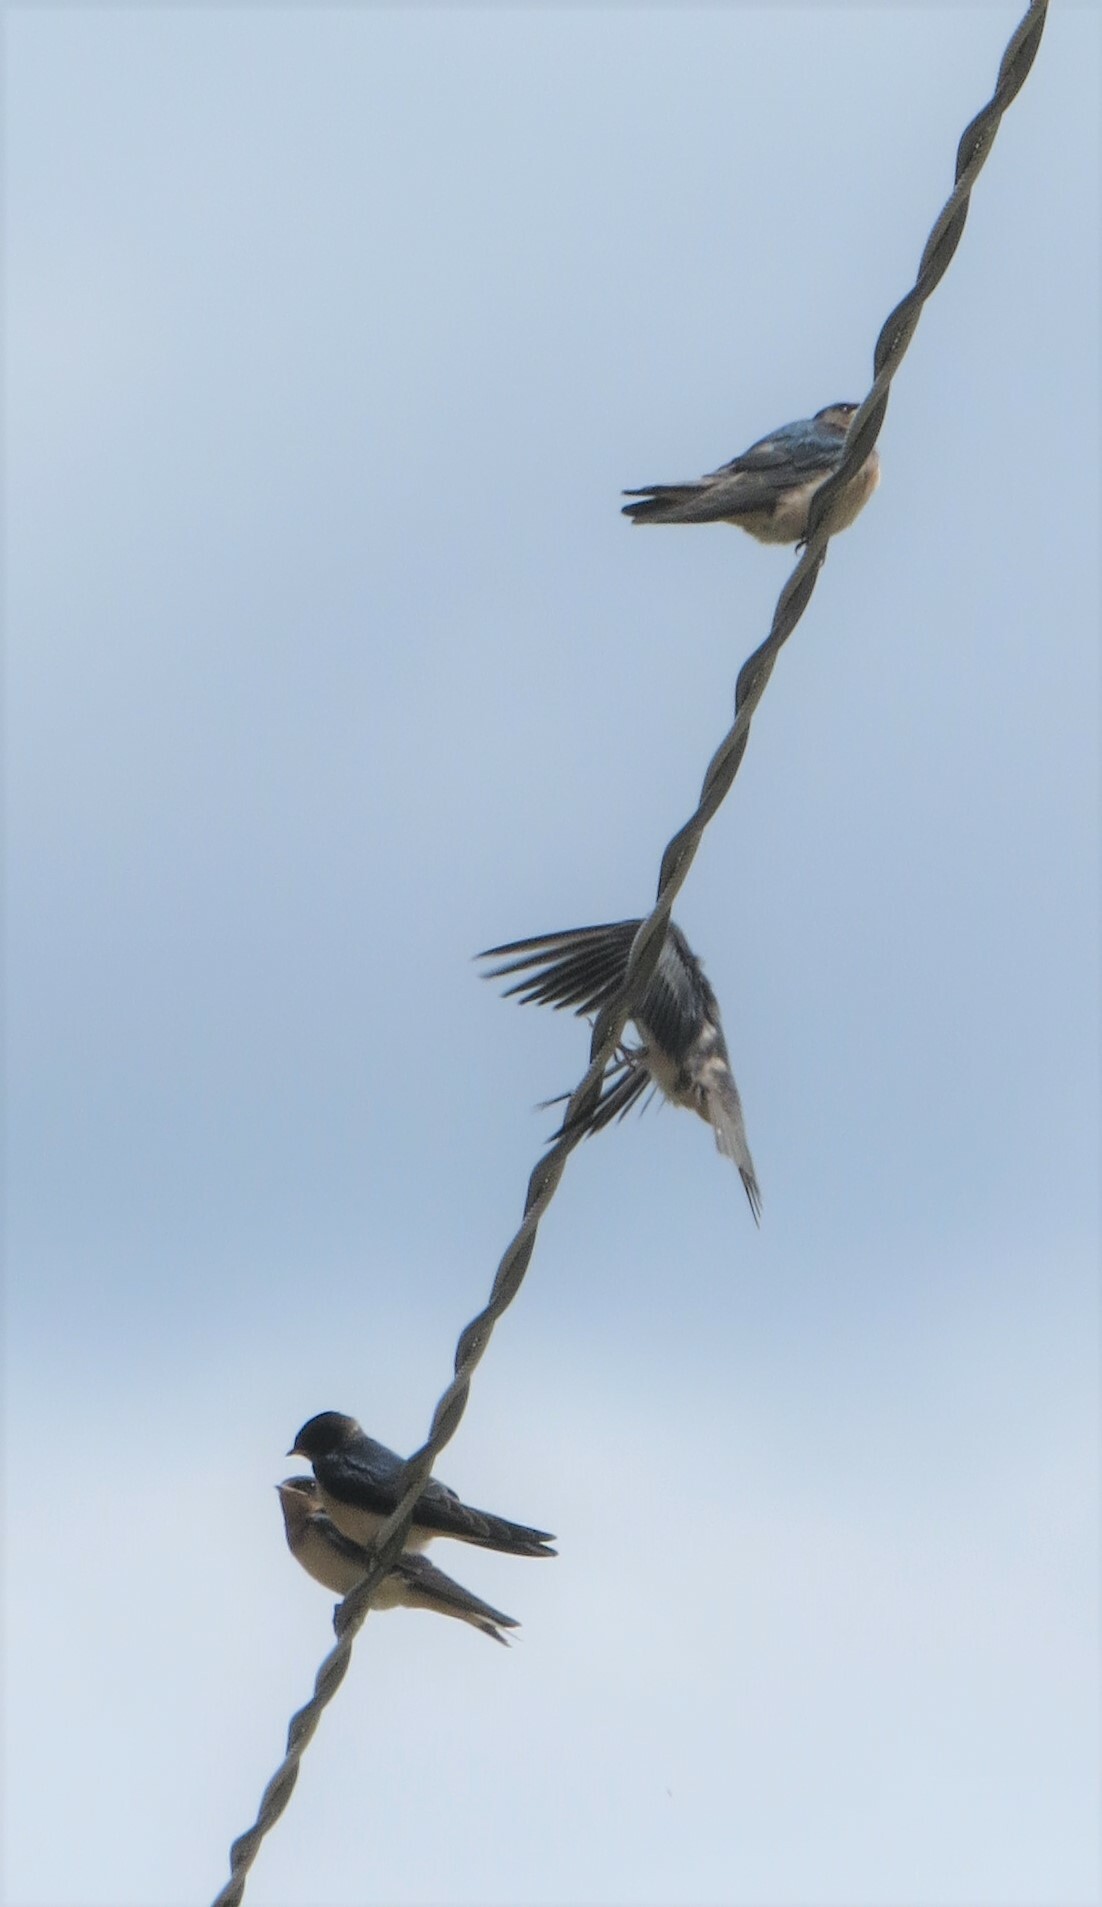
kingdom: Animalia
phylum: Chordata
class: Aves
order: Passeriformes
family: Hirundinidae
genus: Hirundo
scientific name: Hirundo rustica
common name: Barn swallow
